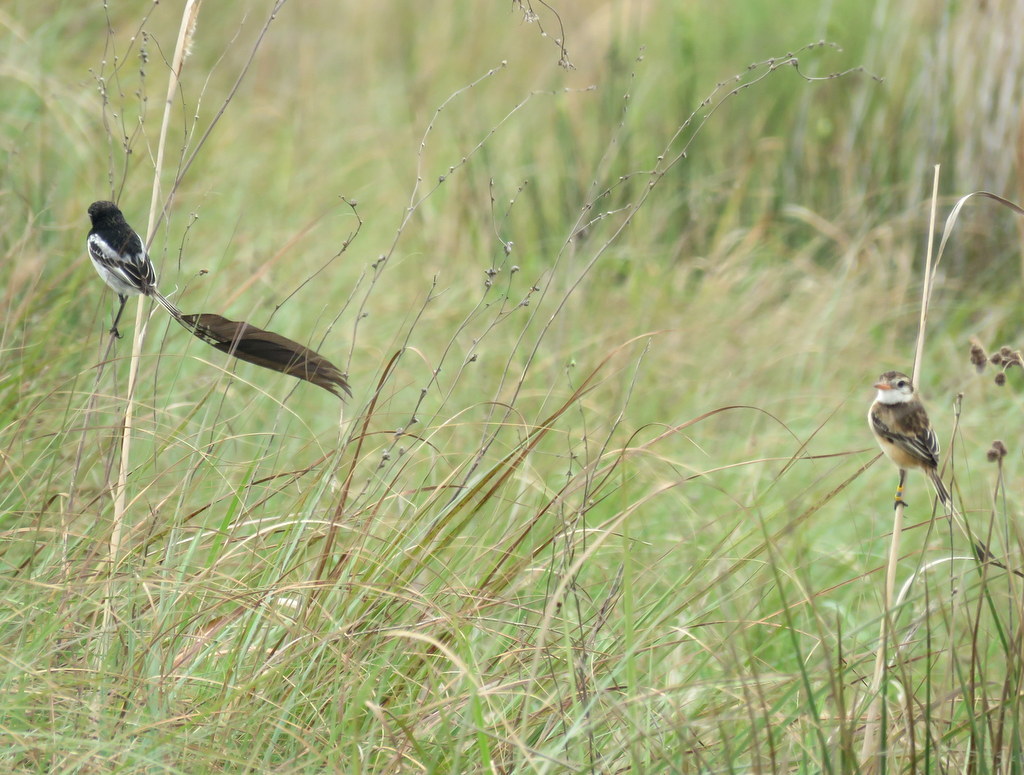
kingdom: Animalia
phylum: Chordata
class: Aves
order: Passeriformes
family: Tyrannidae
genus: Alectrurus
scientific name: Alectrurus risora
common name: Strange-tailed tyrant
